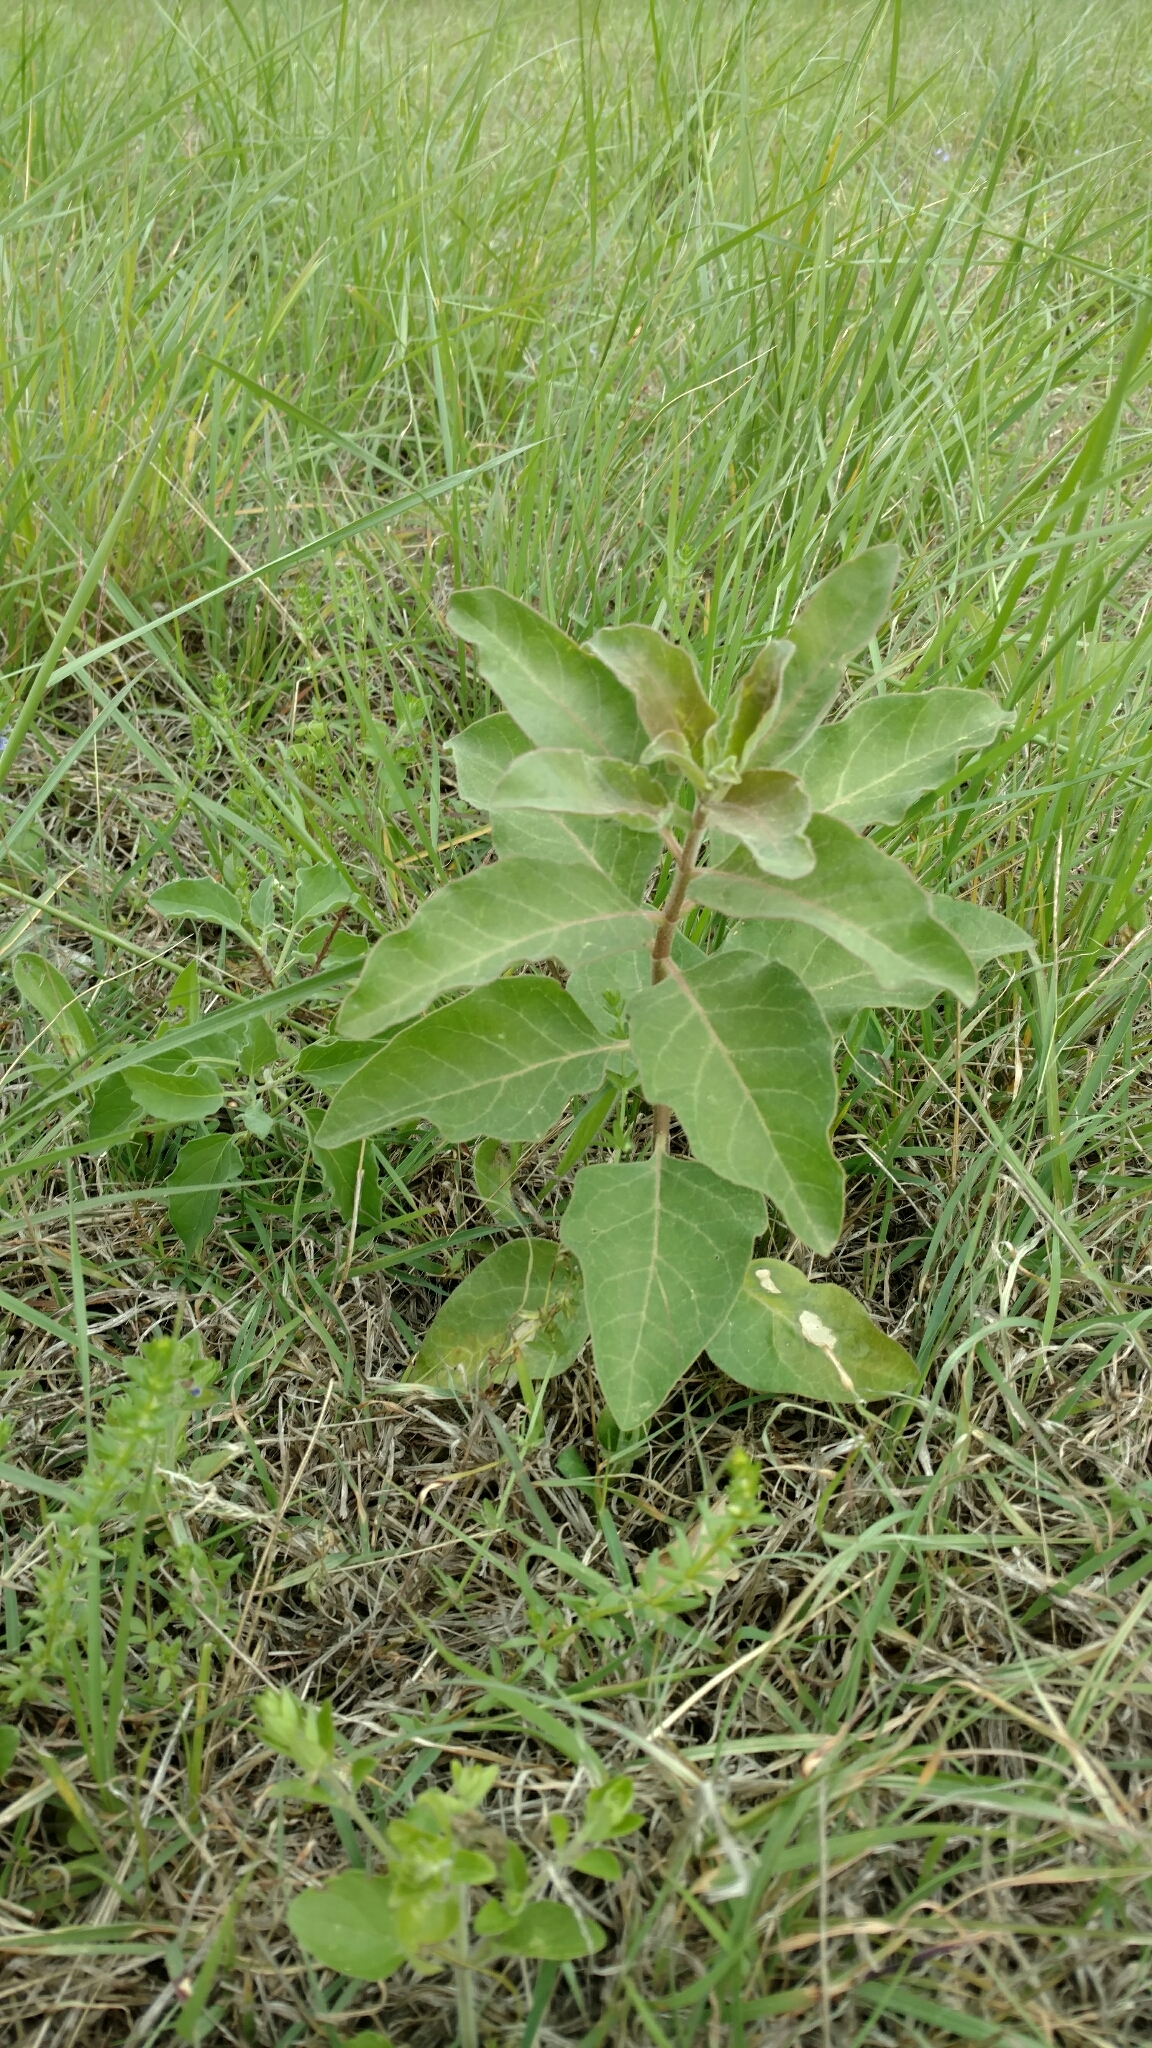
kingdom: Plantae
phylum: Tracheophyta
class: Magnoliopsida
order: Gentianales
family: Apocynaceae
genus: Asclepias
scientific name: Asclepias oenotheroides
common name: Zizotes milkweed
